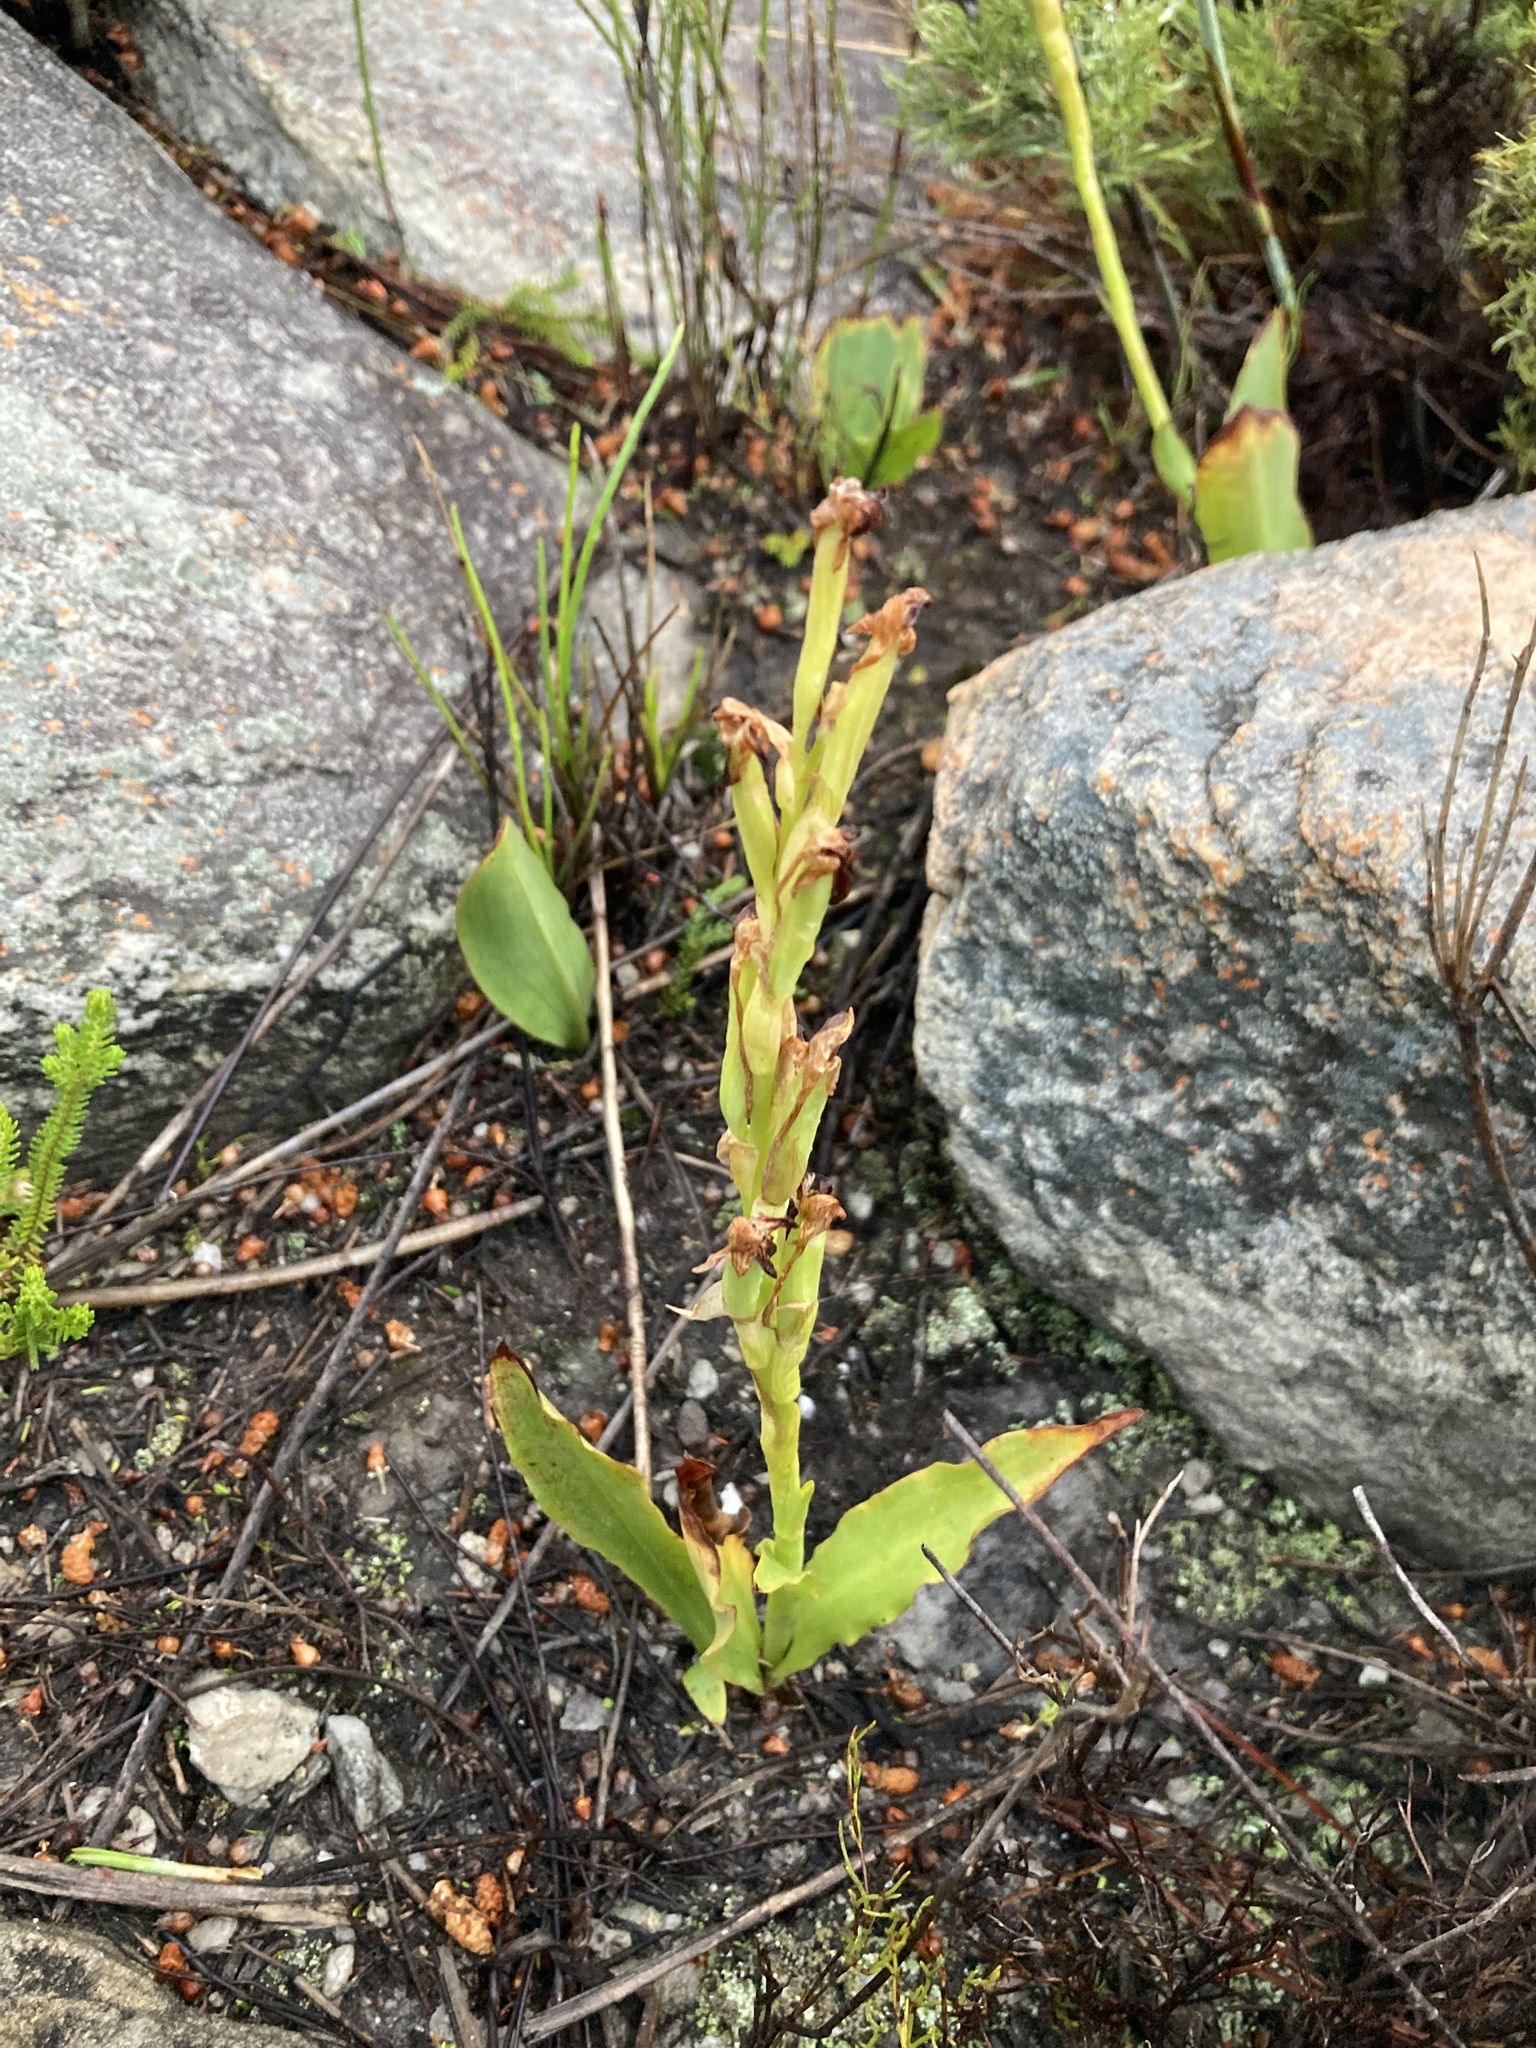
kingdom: Plantae
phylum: Tracheophyta
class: Liliopsida
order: Asparagales
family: Orchidaceae
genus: Disa
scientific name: Disa comosa
